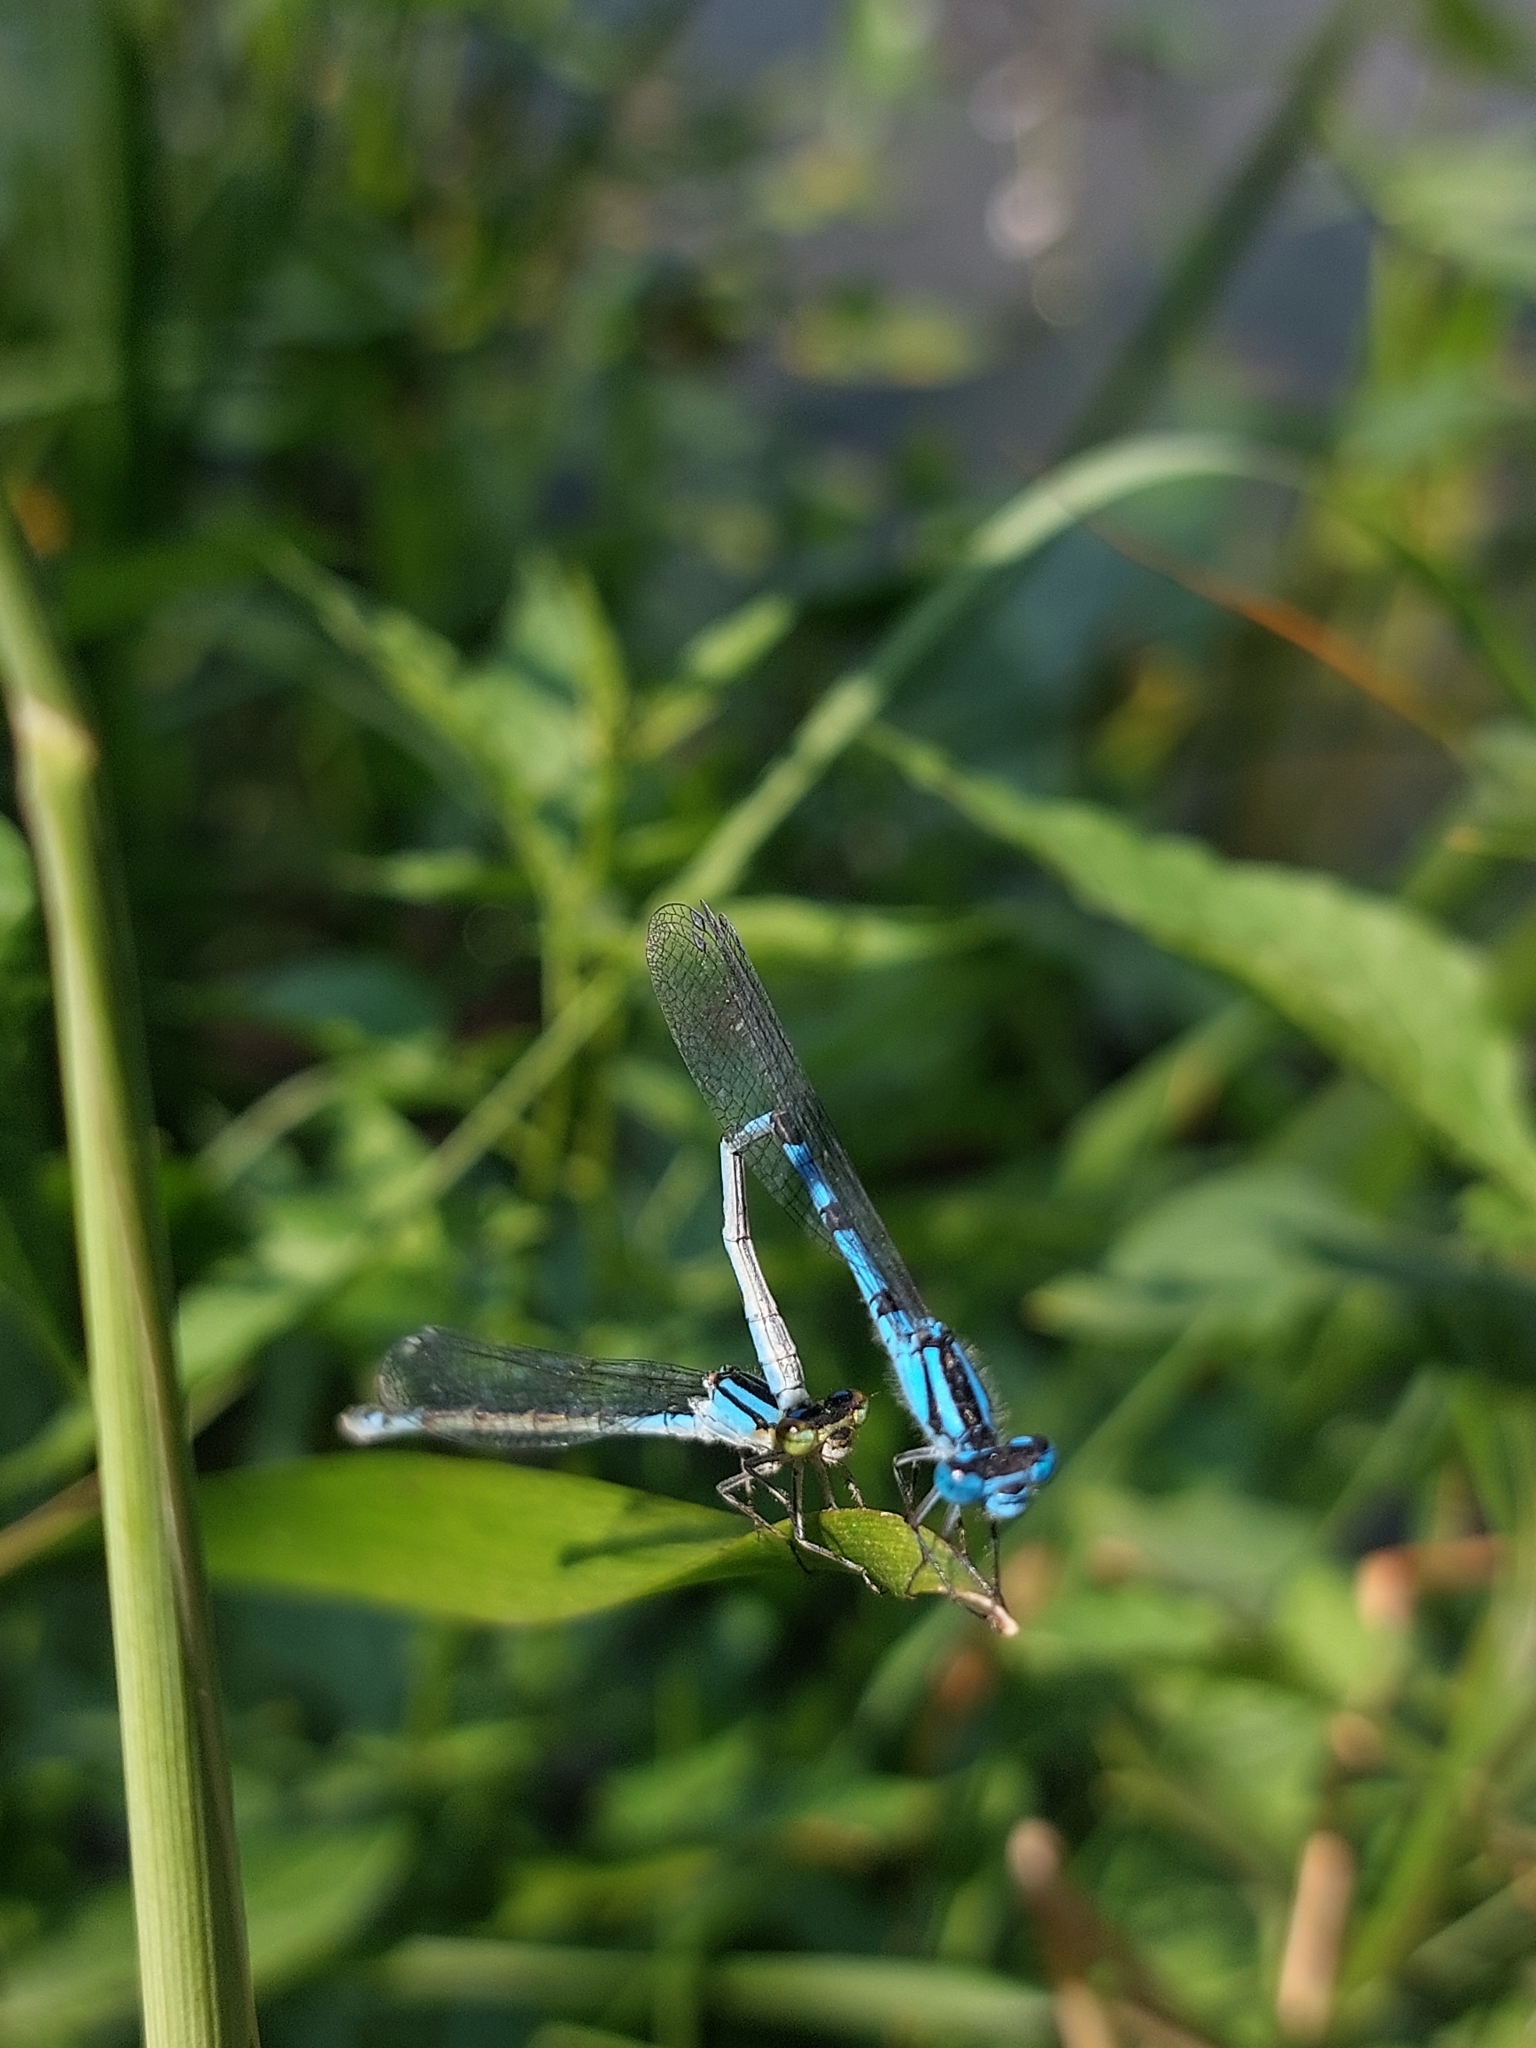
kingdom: Animalia
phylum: Arthropoda
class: Insecta
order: Odonata
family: Coenagrionidae
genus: Enallagma
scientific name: Enallagma cyathigerum
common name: Common blue damselfly
